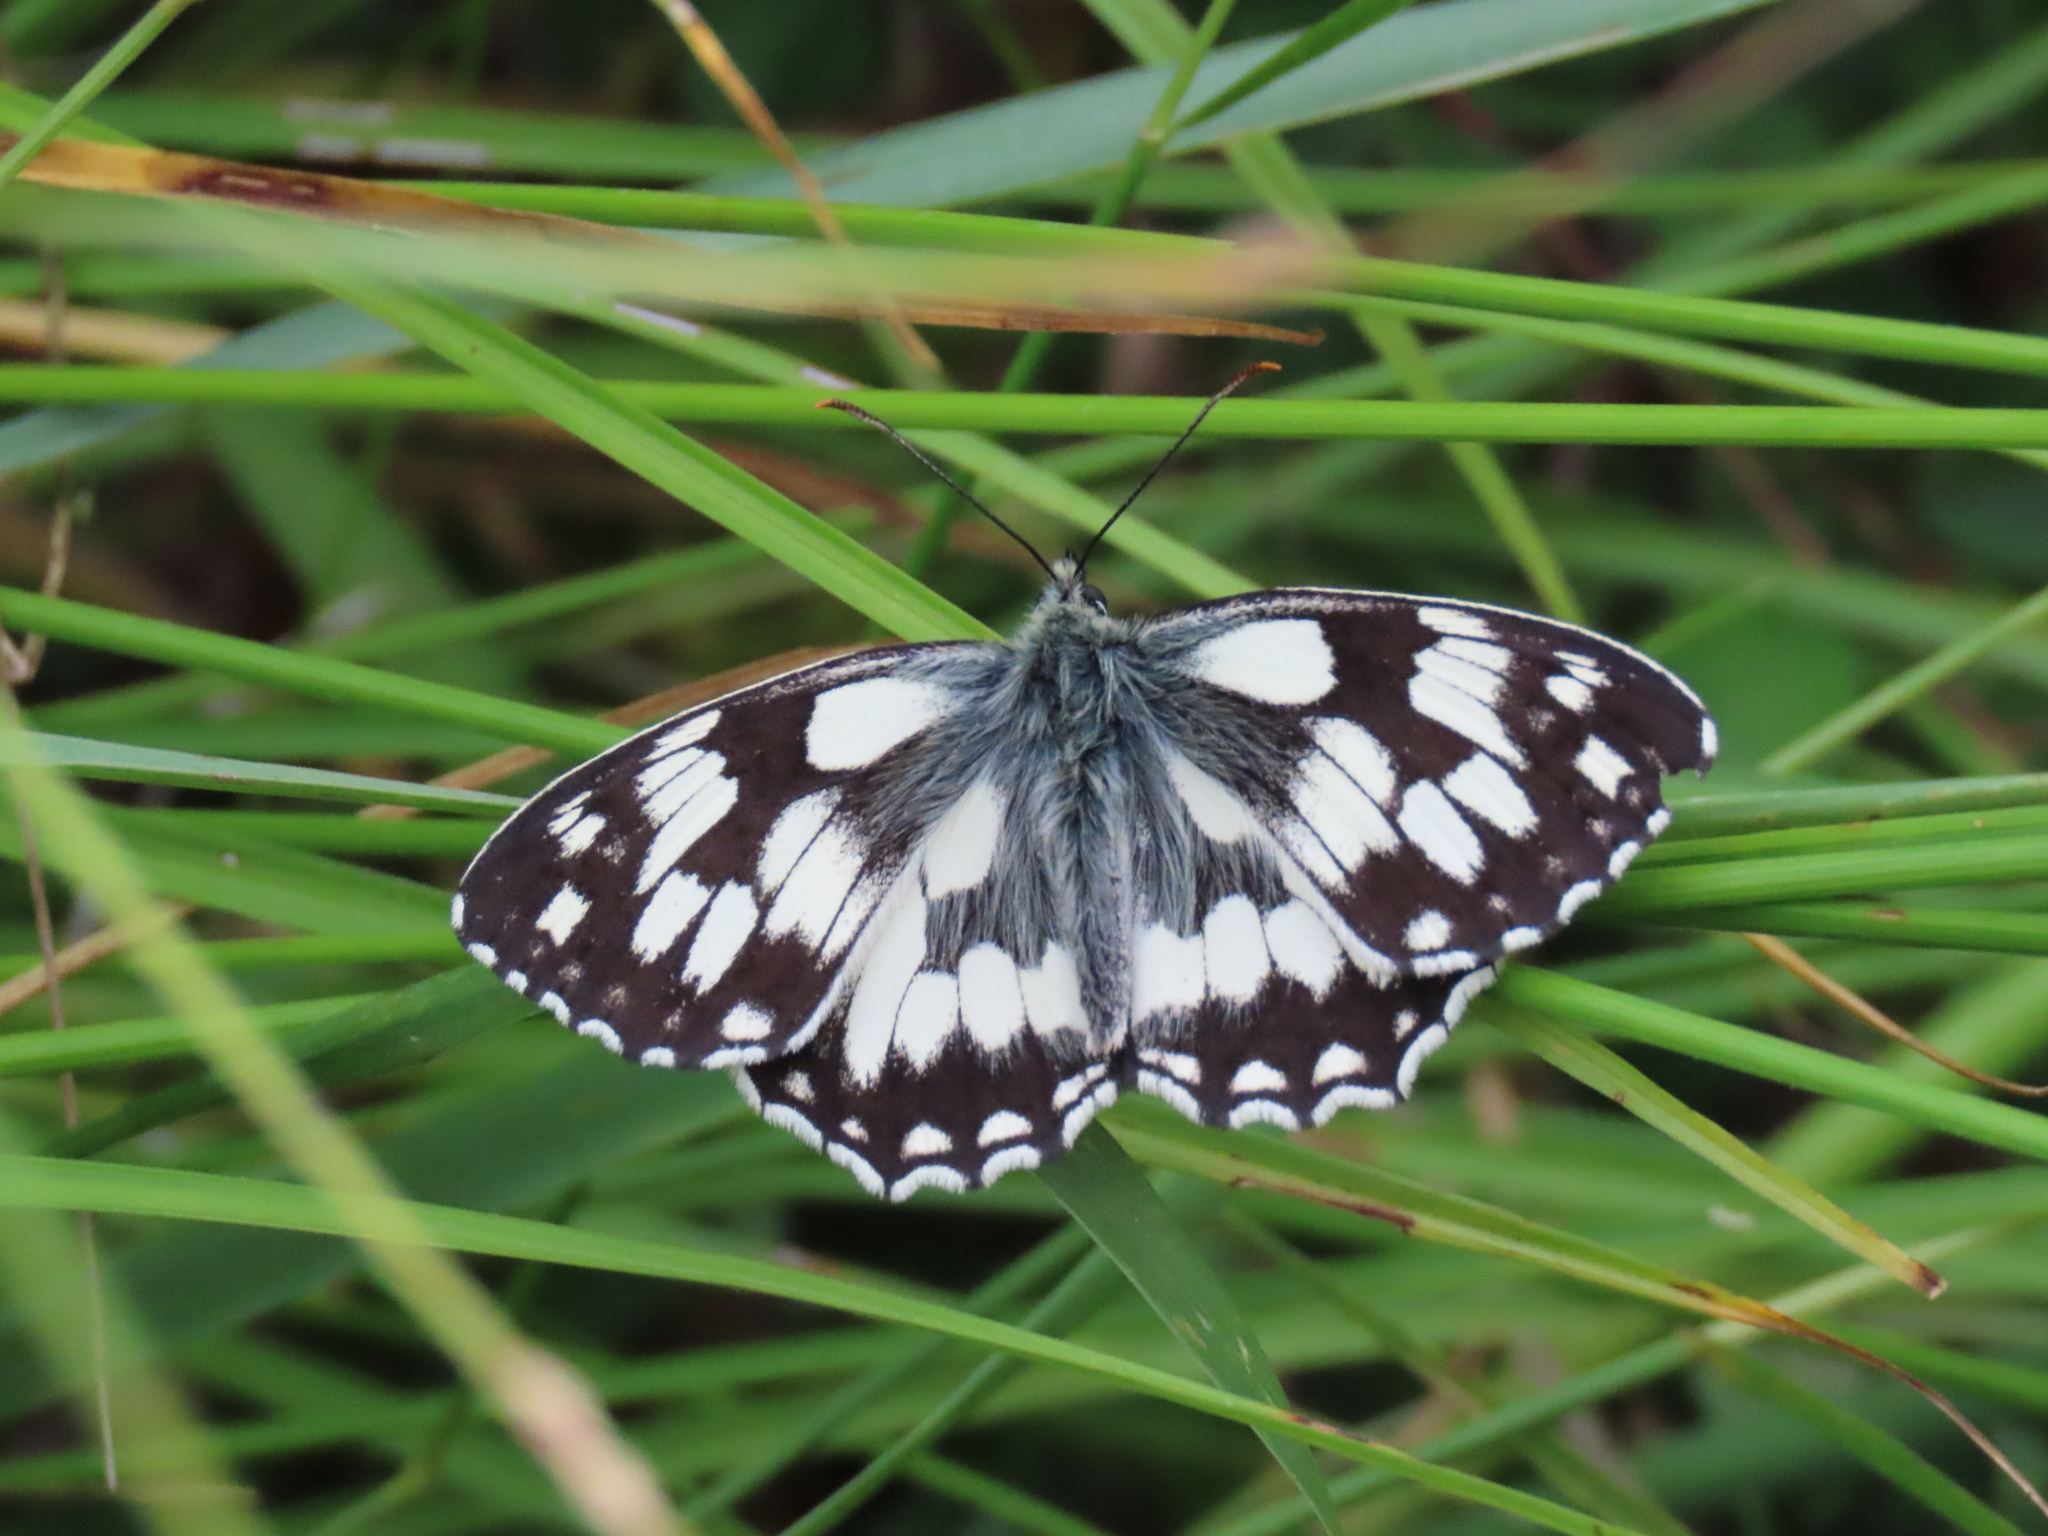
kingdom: Animalia
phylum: Arthropoda
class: Insecta
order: Lepidoptera
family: Nymphalidae
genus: Melanargia
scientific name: Melanargia galathea
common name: Marbled white
